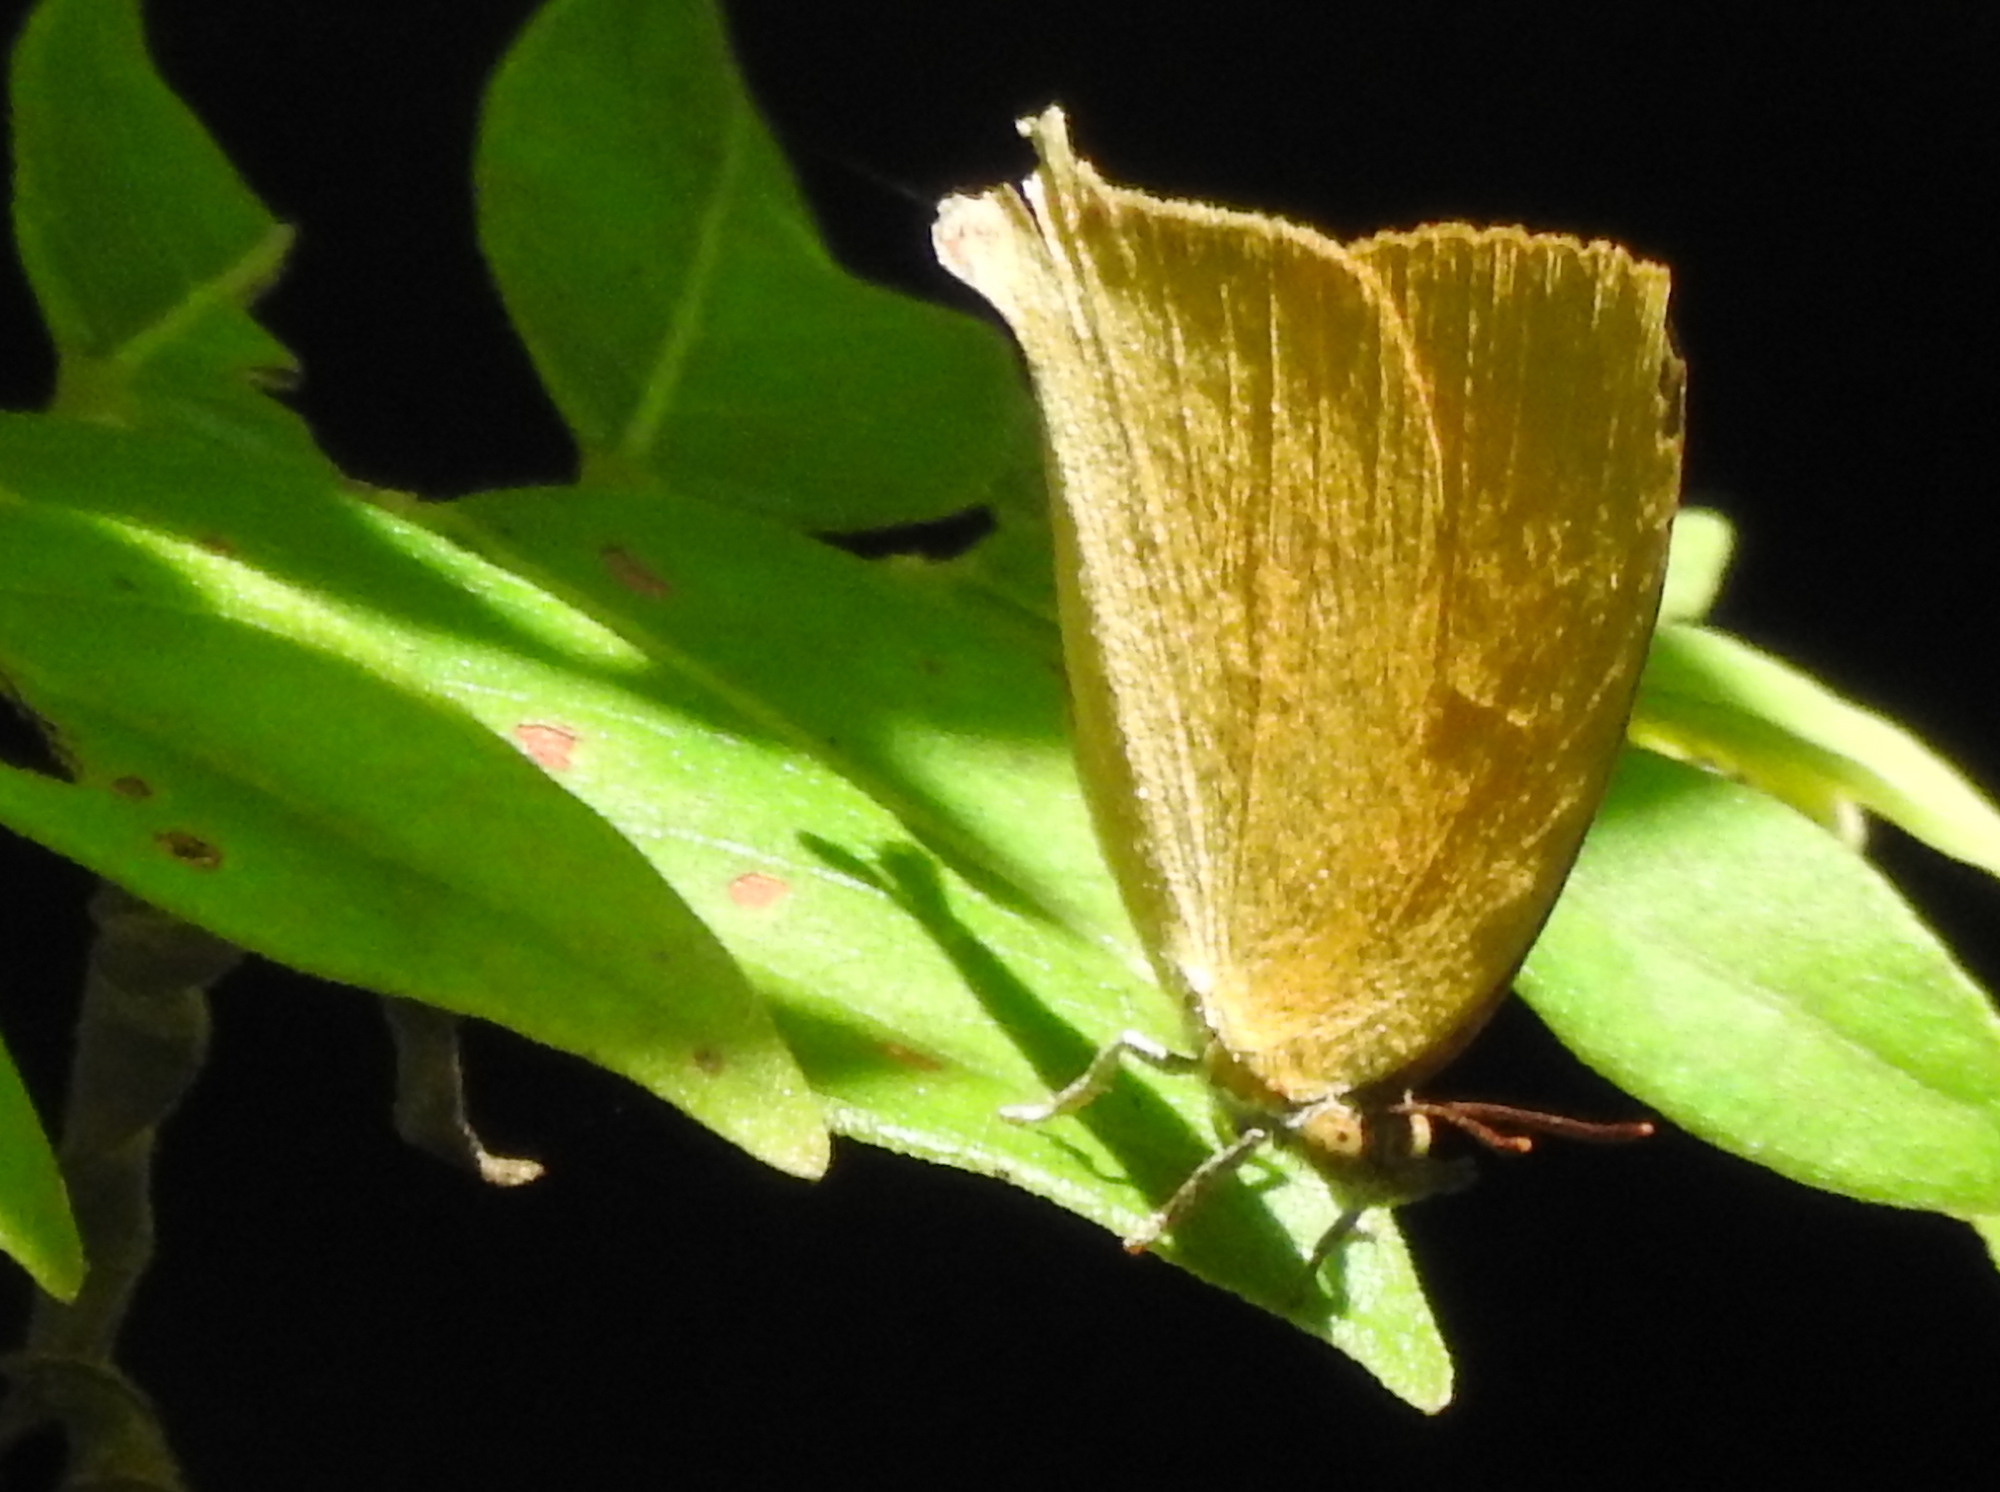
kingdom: Animalia
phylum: Arthropoda
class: Insecta
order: Lepidoptera
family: Lycaenidae
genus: Loxura
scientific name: Loxura atymnus
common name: Common yamfly
